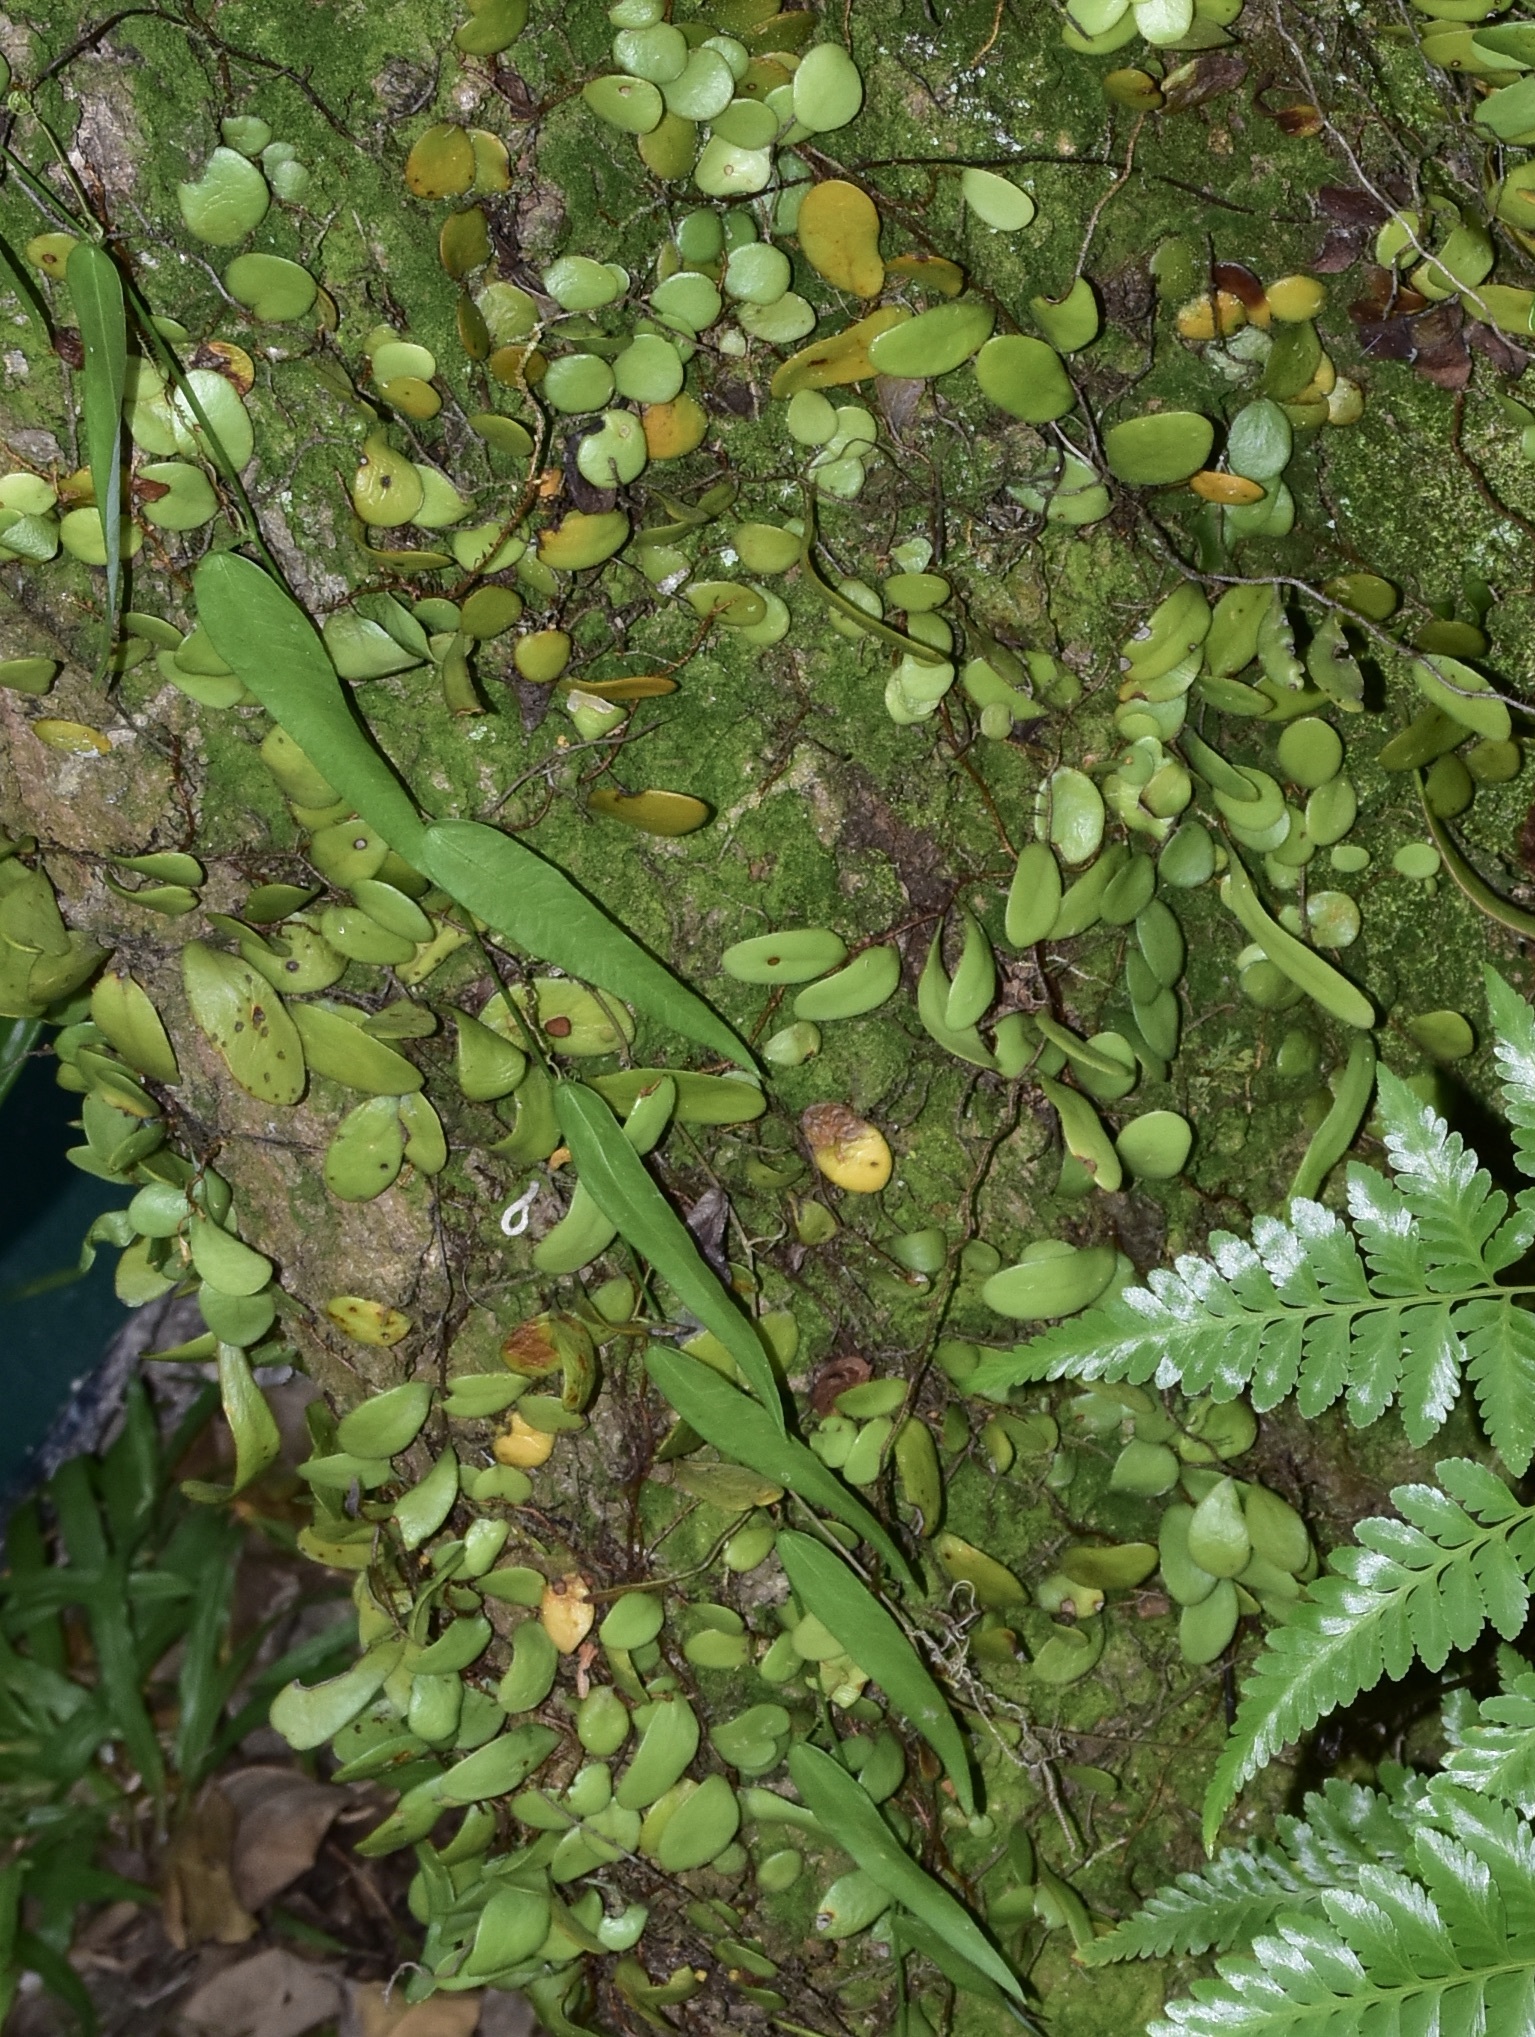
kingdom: Plantae
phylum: Tracheophyta
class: Magnoliopsida
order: Malpighiales
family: Passifloraceae
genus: Passiflora
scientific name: Passiflora suberosa
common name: Wild passionfruit
